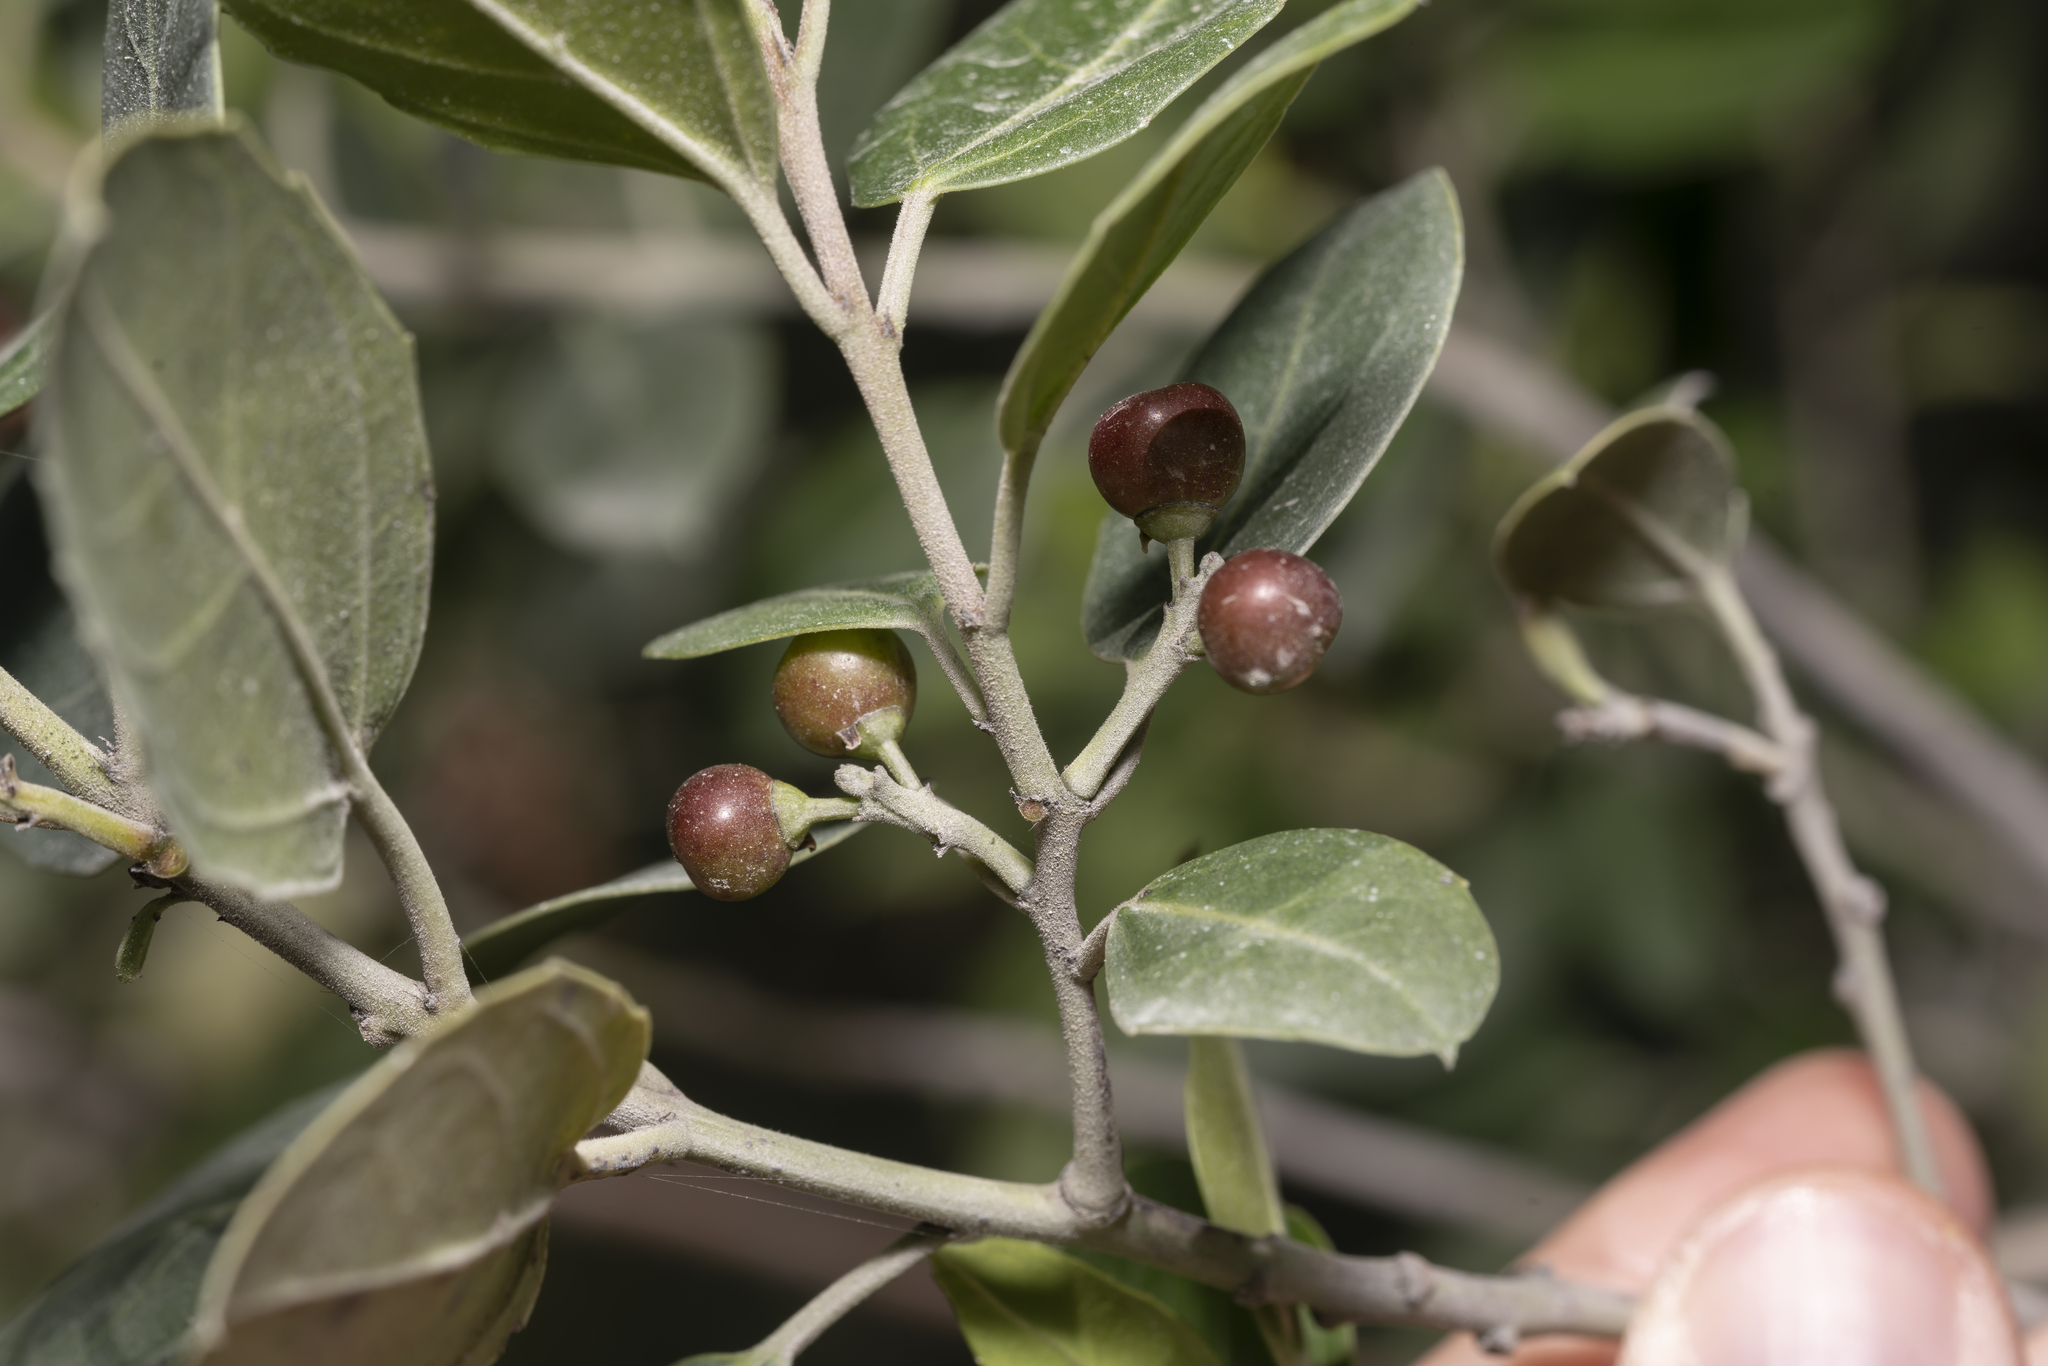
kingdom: Plantae
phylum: Tracheophyta
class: Magnoliopsida
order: Rosales
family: Rhamnaceae
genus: Rhamnus
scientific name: Rhamnus alaternus
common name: Mediterranean buckthorn
